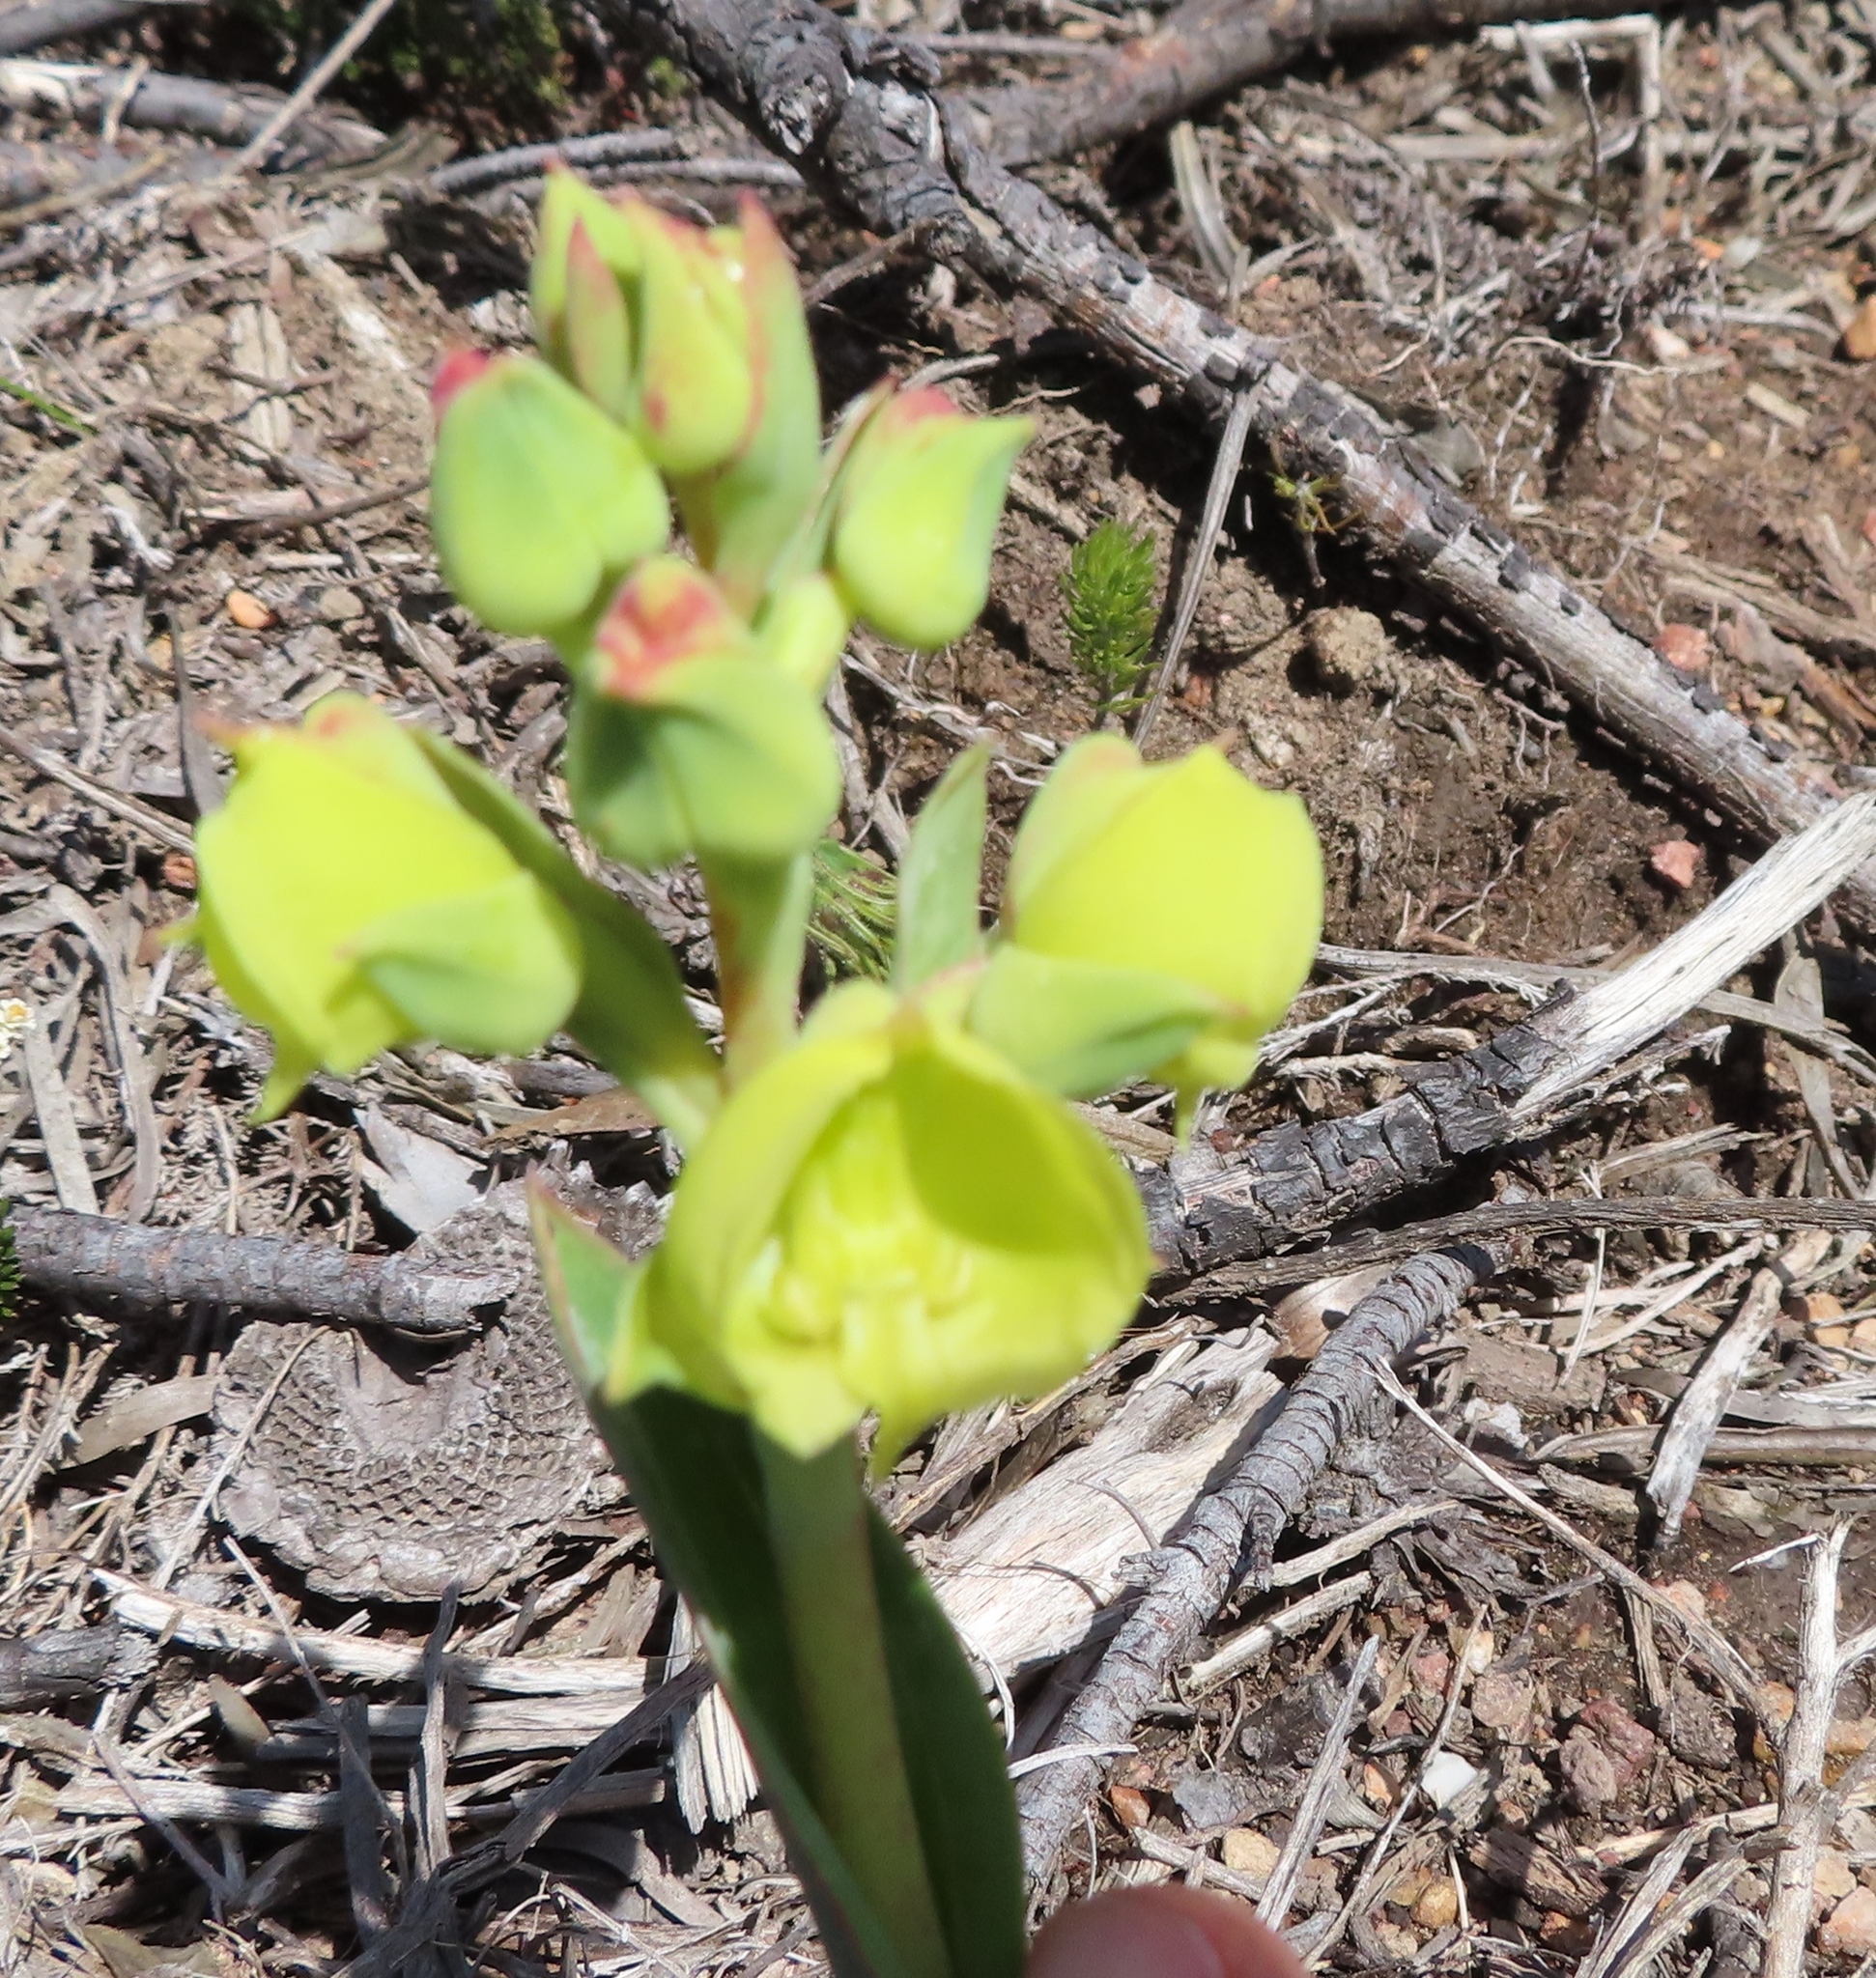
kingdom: Plantae
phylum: Tracheophyta
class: Liliopsida
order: Asparagales
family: Orchidaceae
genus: Pterygodium
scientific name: Pterygodium catholicum
